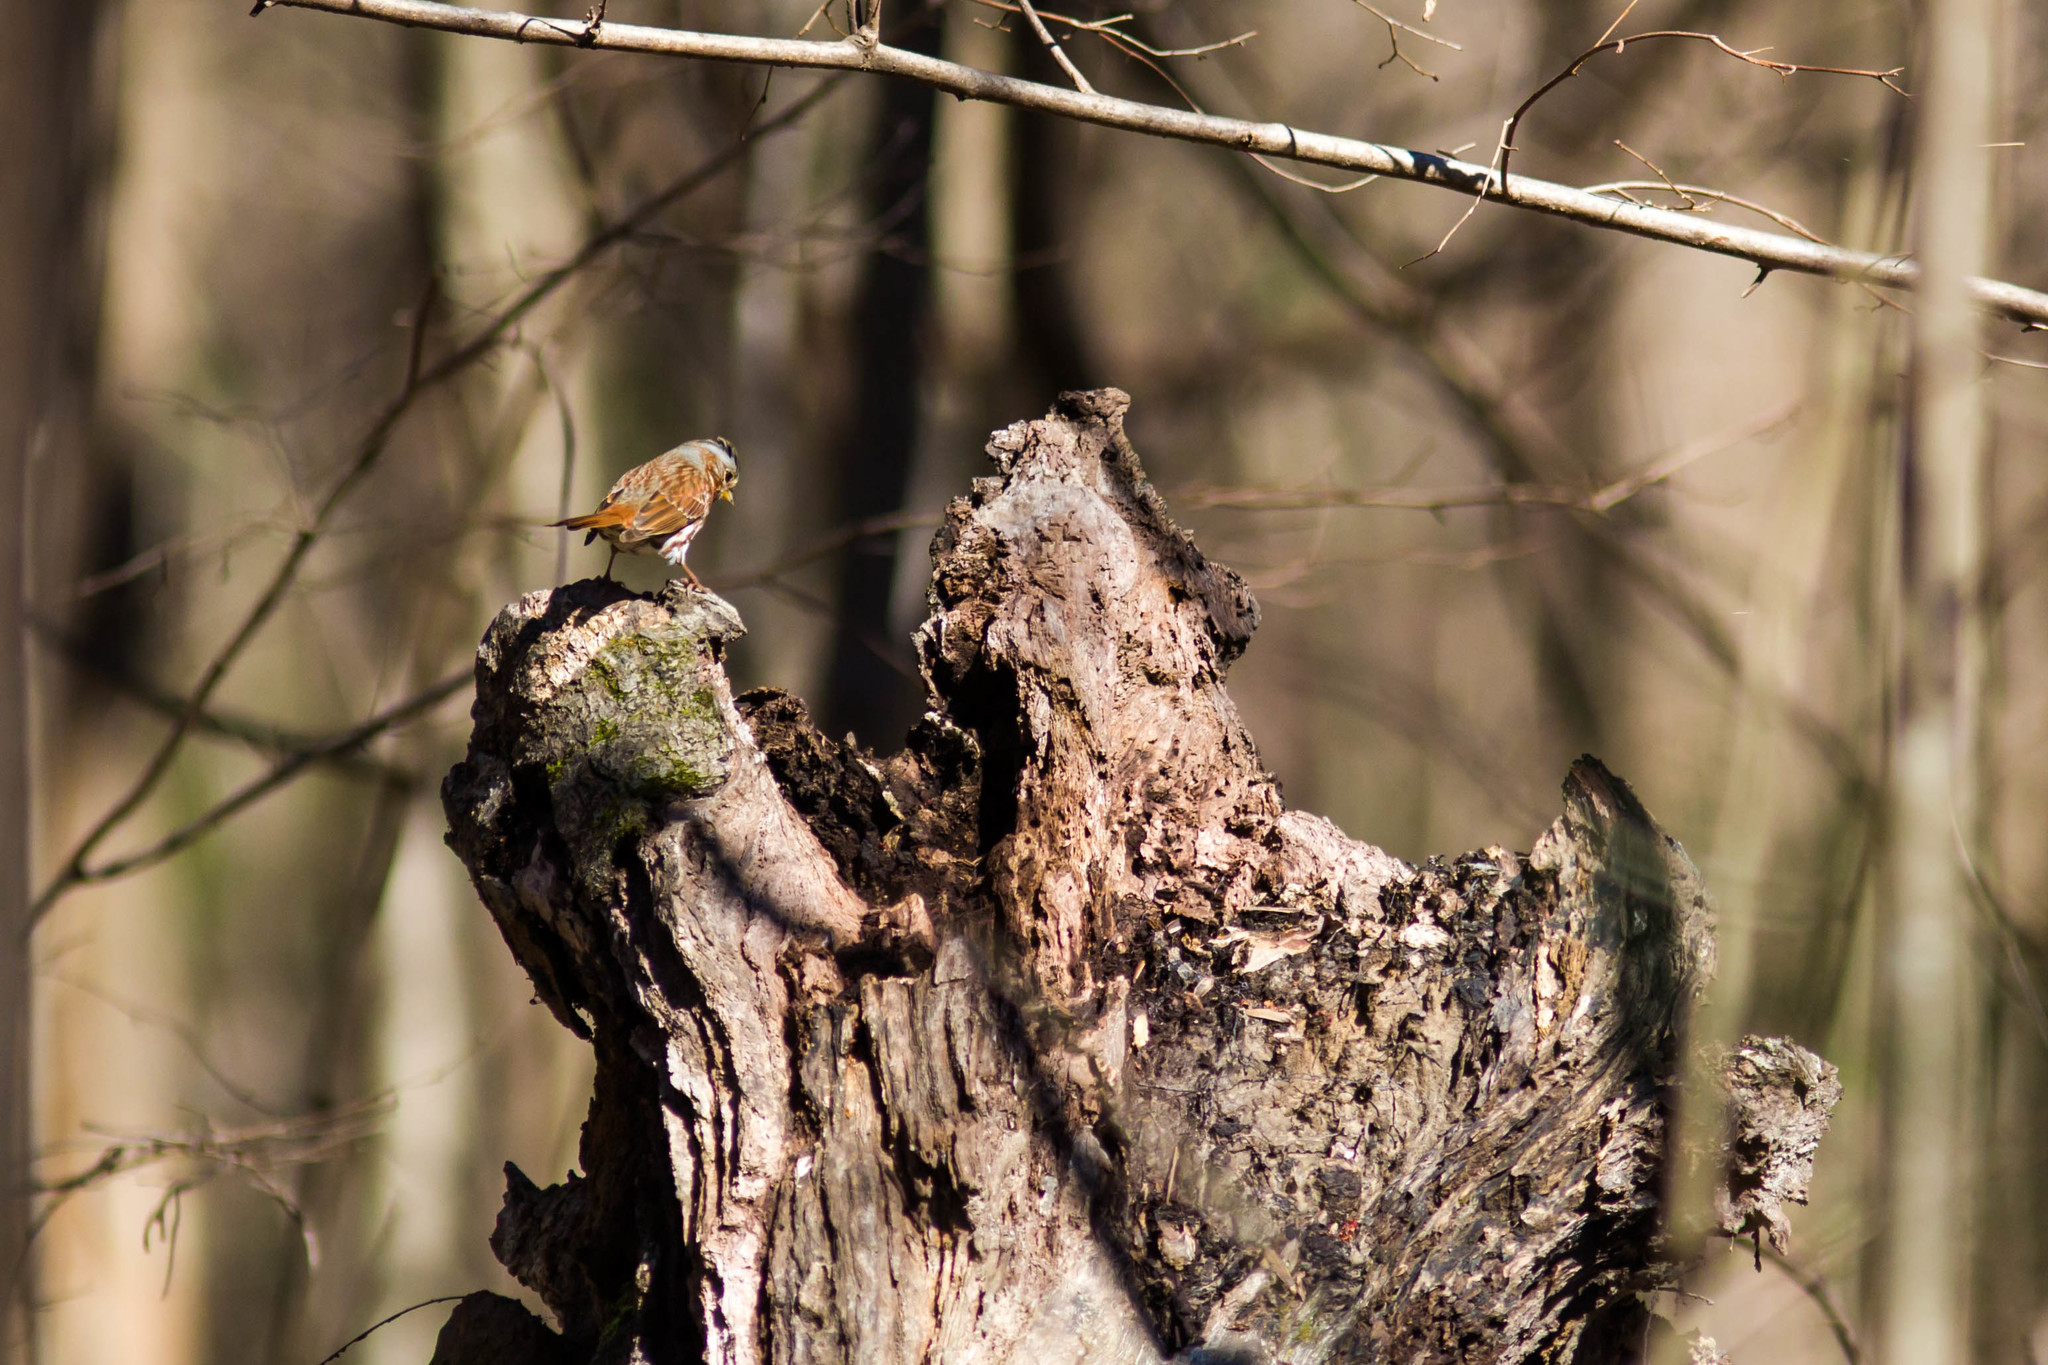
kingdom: Animalia
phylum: Chordata
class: Aves
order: Passeriformes
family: Passerellidae
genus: Passerella
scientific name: Passerella iliaca
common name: Fox sparrow
